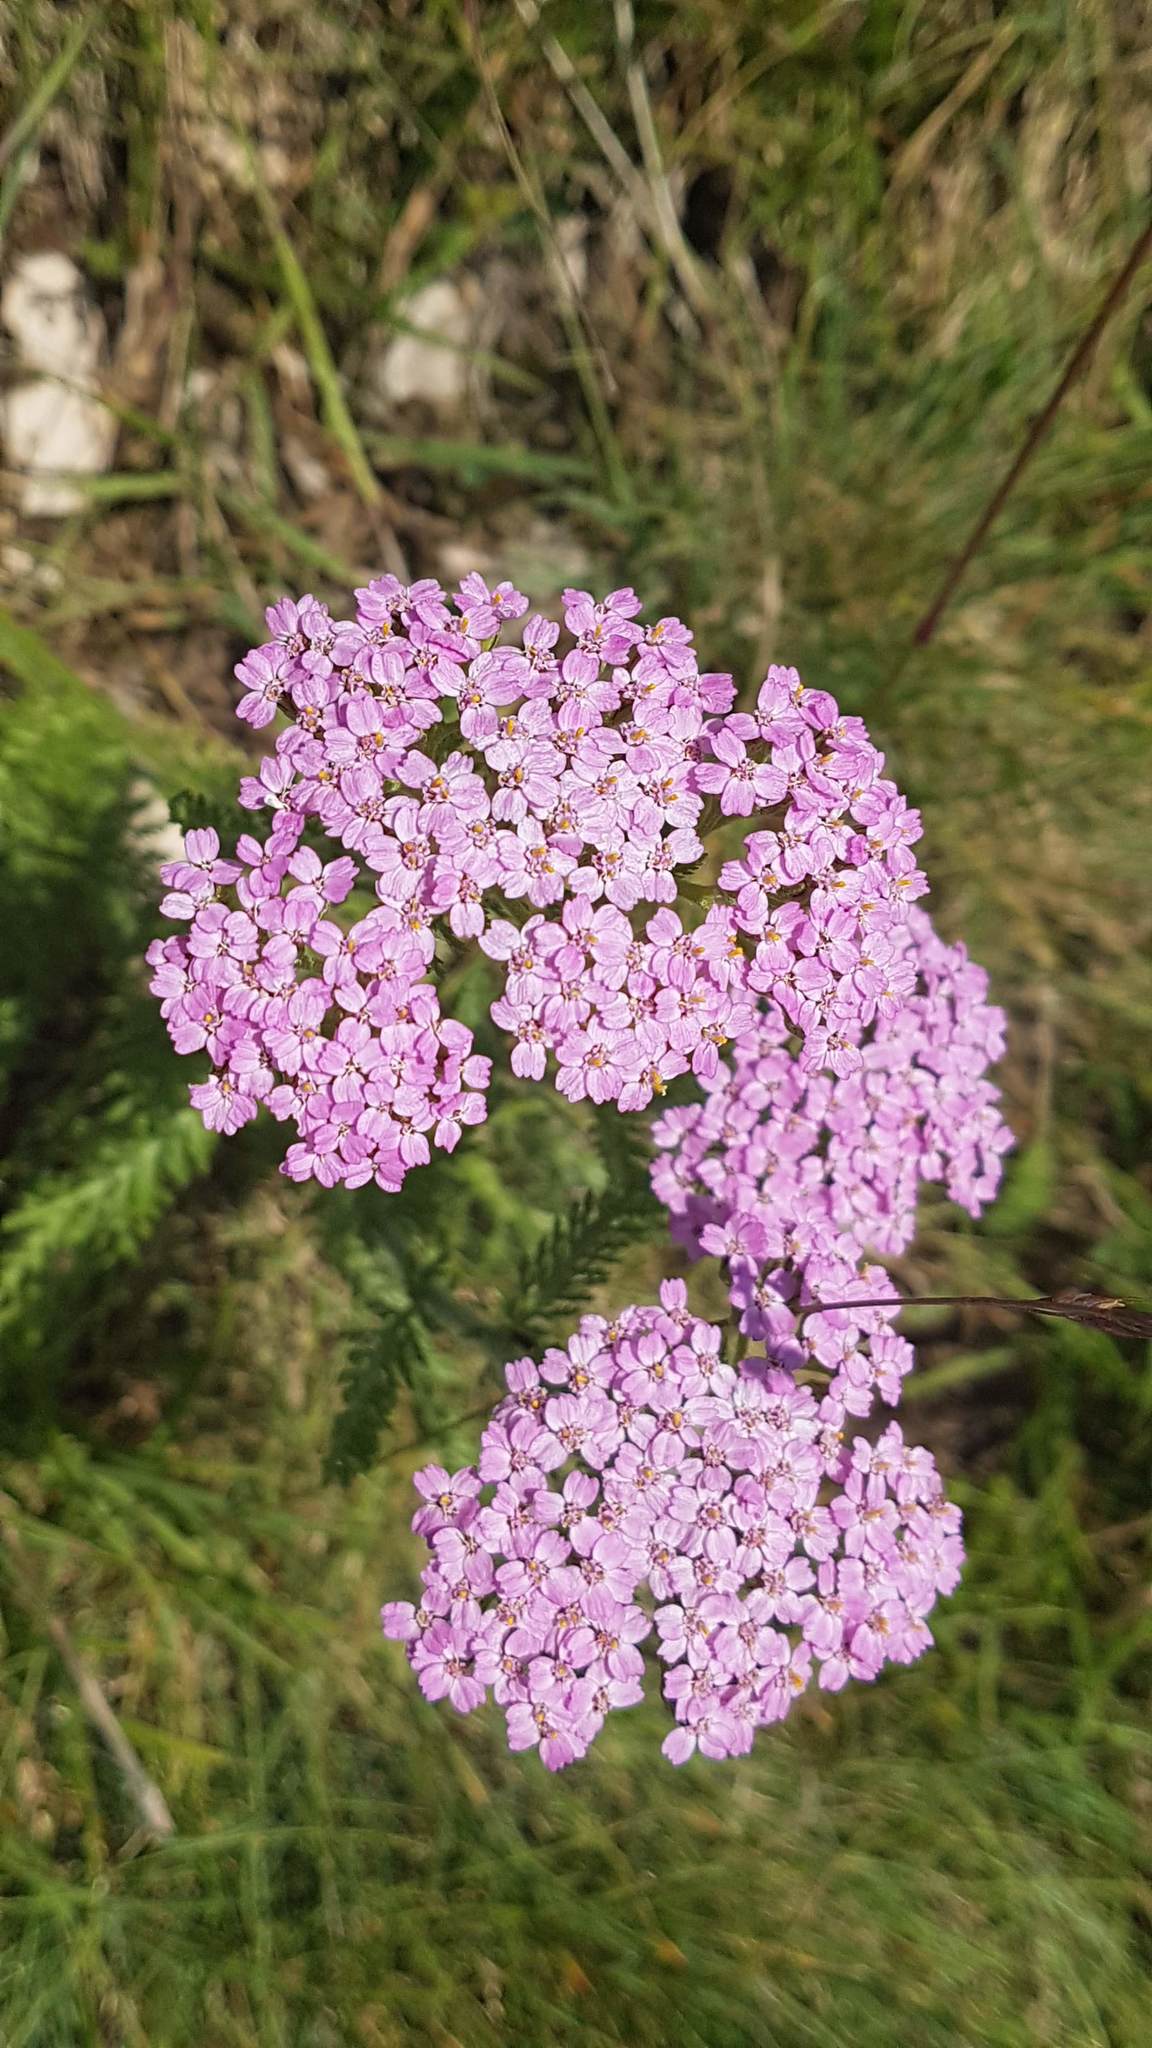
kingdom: Plantae
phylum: Tracheophyta
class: Magnoliopsida
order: Asterales
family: Asteraceae
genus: Achillea
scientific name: Achillea millefolium
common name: Yarrow
